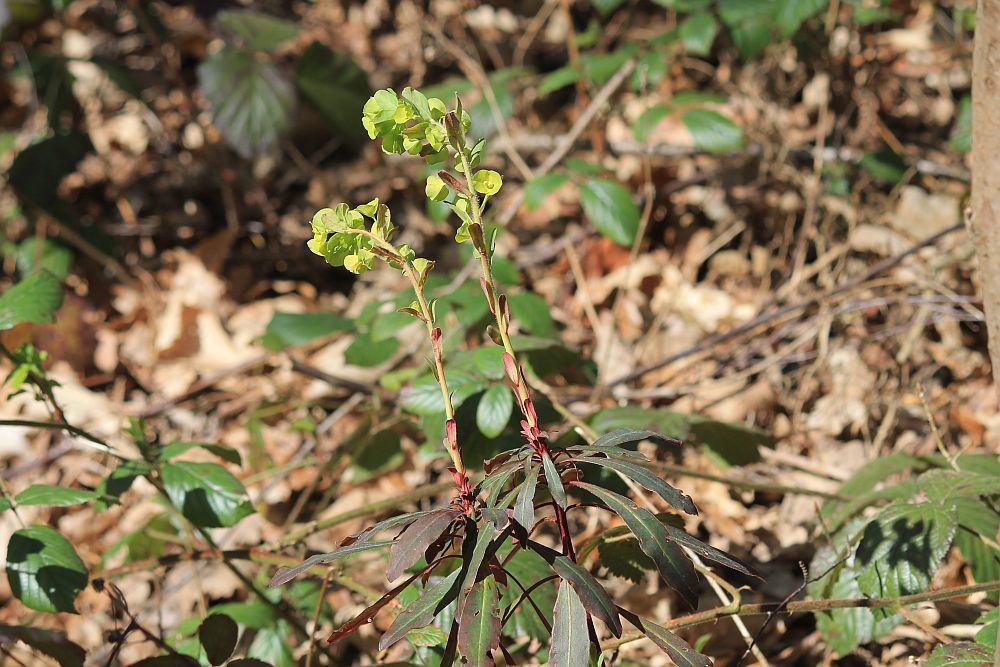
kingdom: Plantae
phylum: Tracheophyta
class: Magnoliopsida
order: Malpighiales
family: Euphorbiaceae
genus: Euphorbia
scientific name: Euphorbia amygdaloides
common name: Wood spurge
